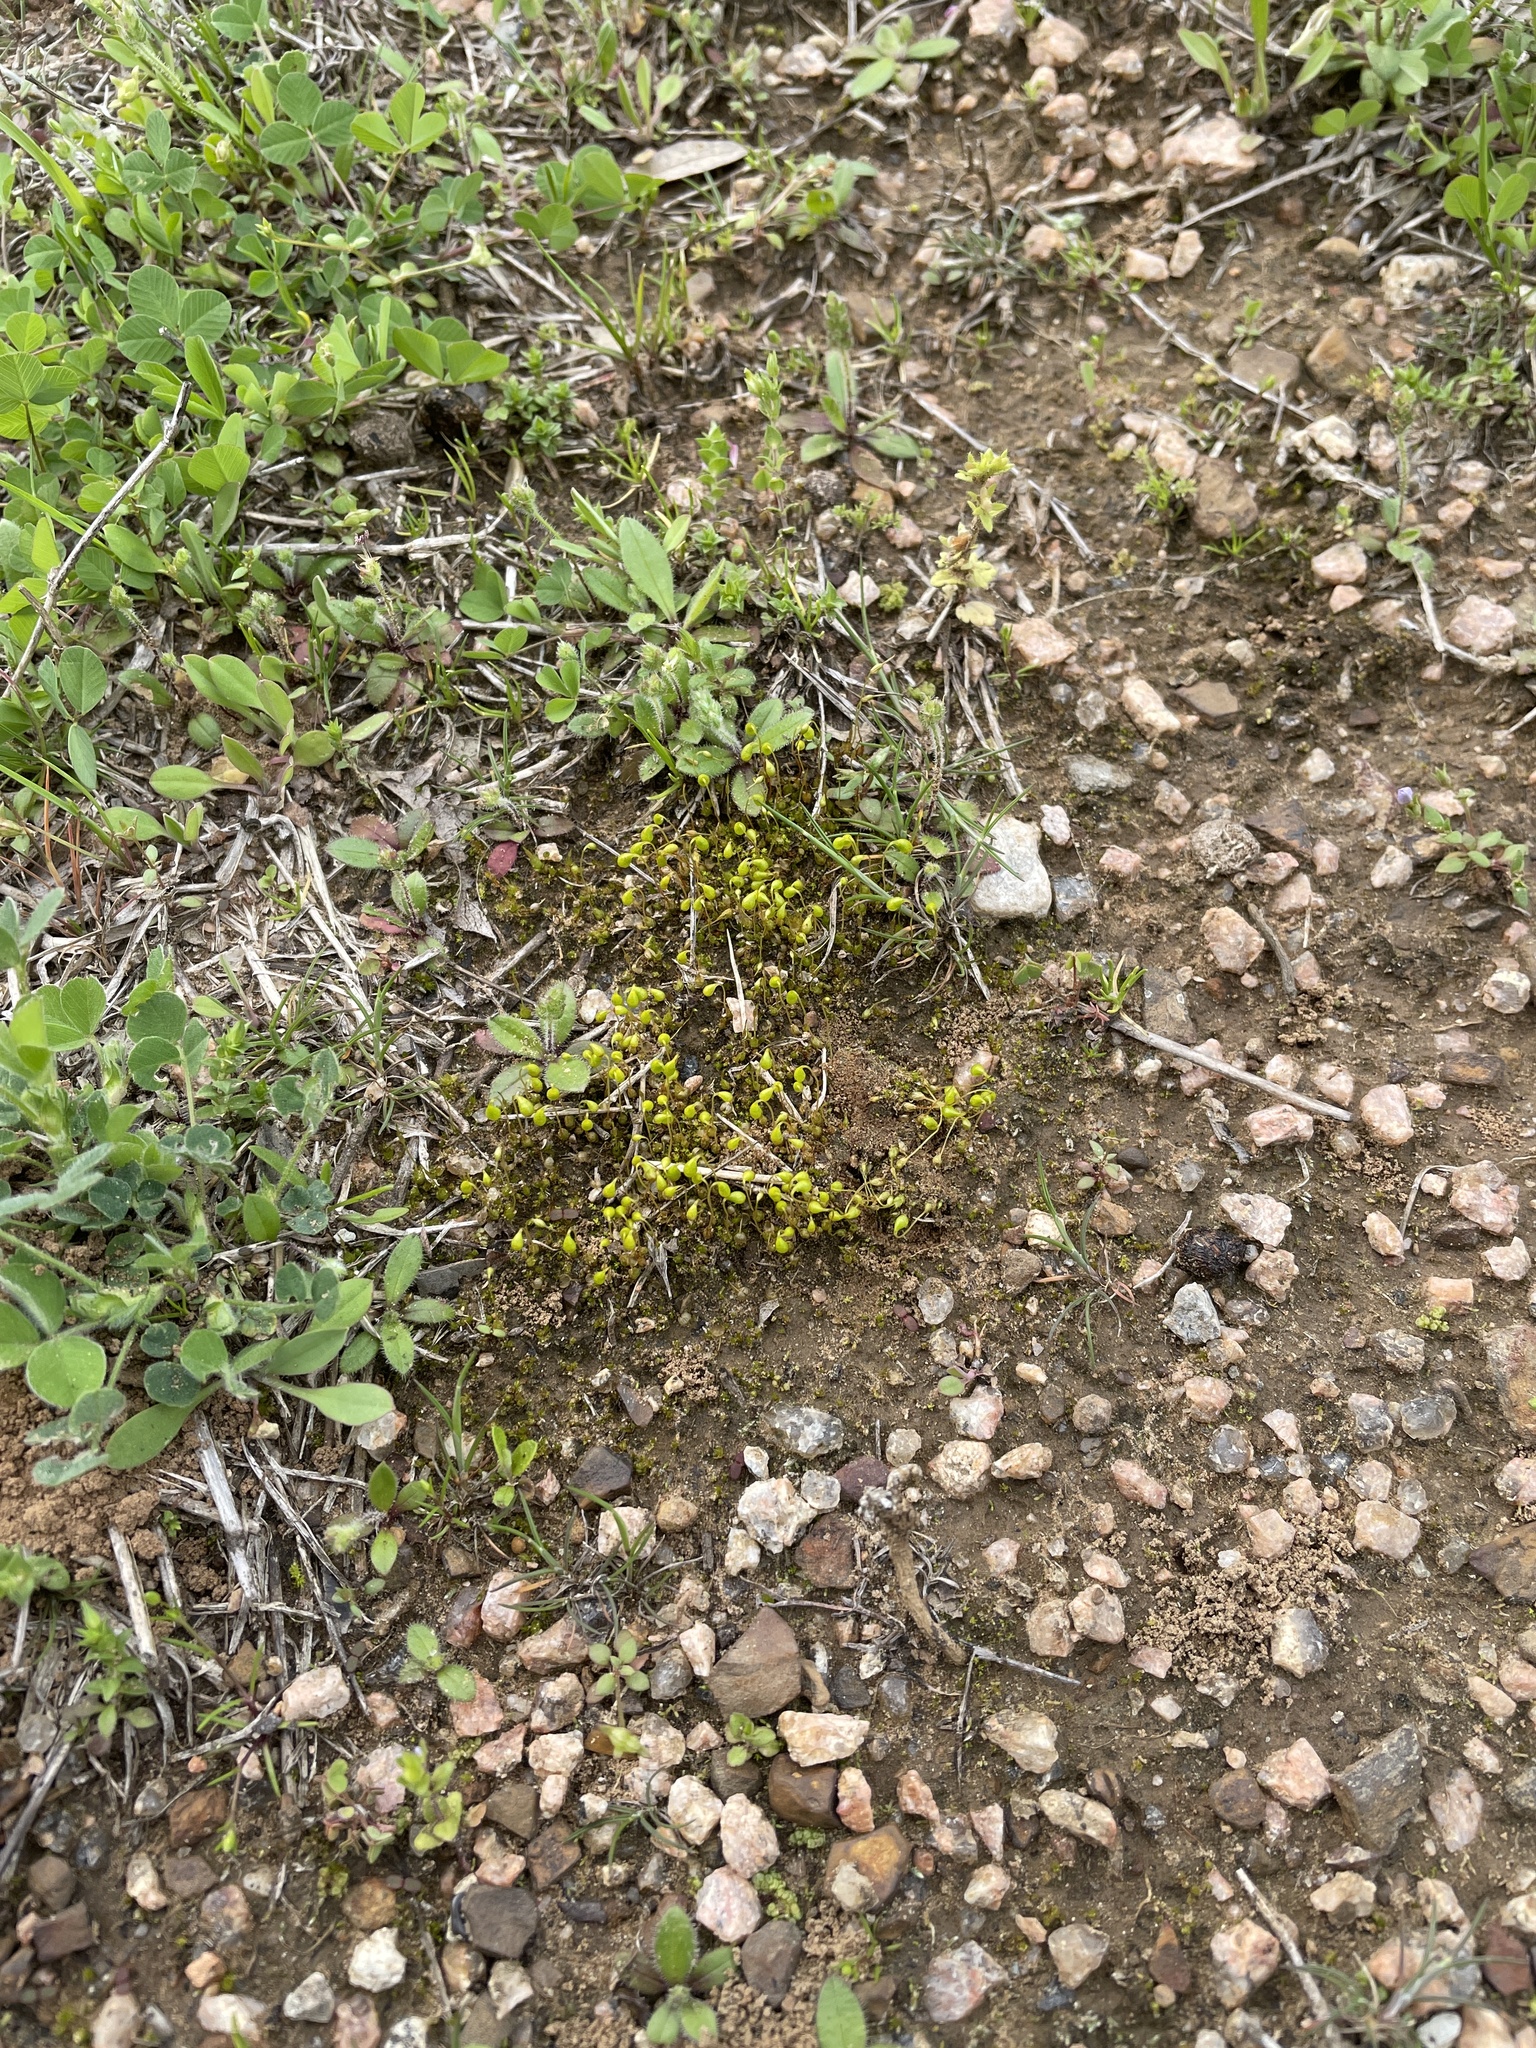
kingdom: Plantae
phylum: Bryophyta
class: Bryopsida
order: Funariales
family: Funariaceae
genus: Funaria
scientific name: Funaria hygrometrica
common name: Common cord moss
